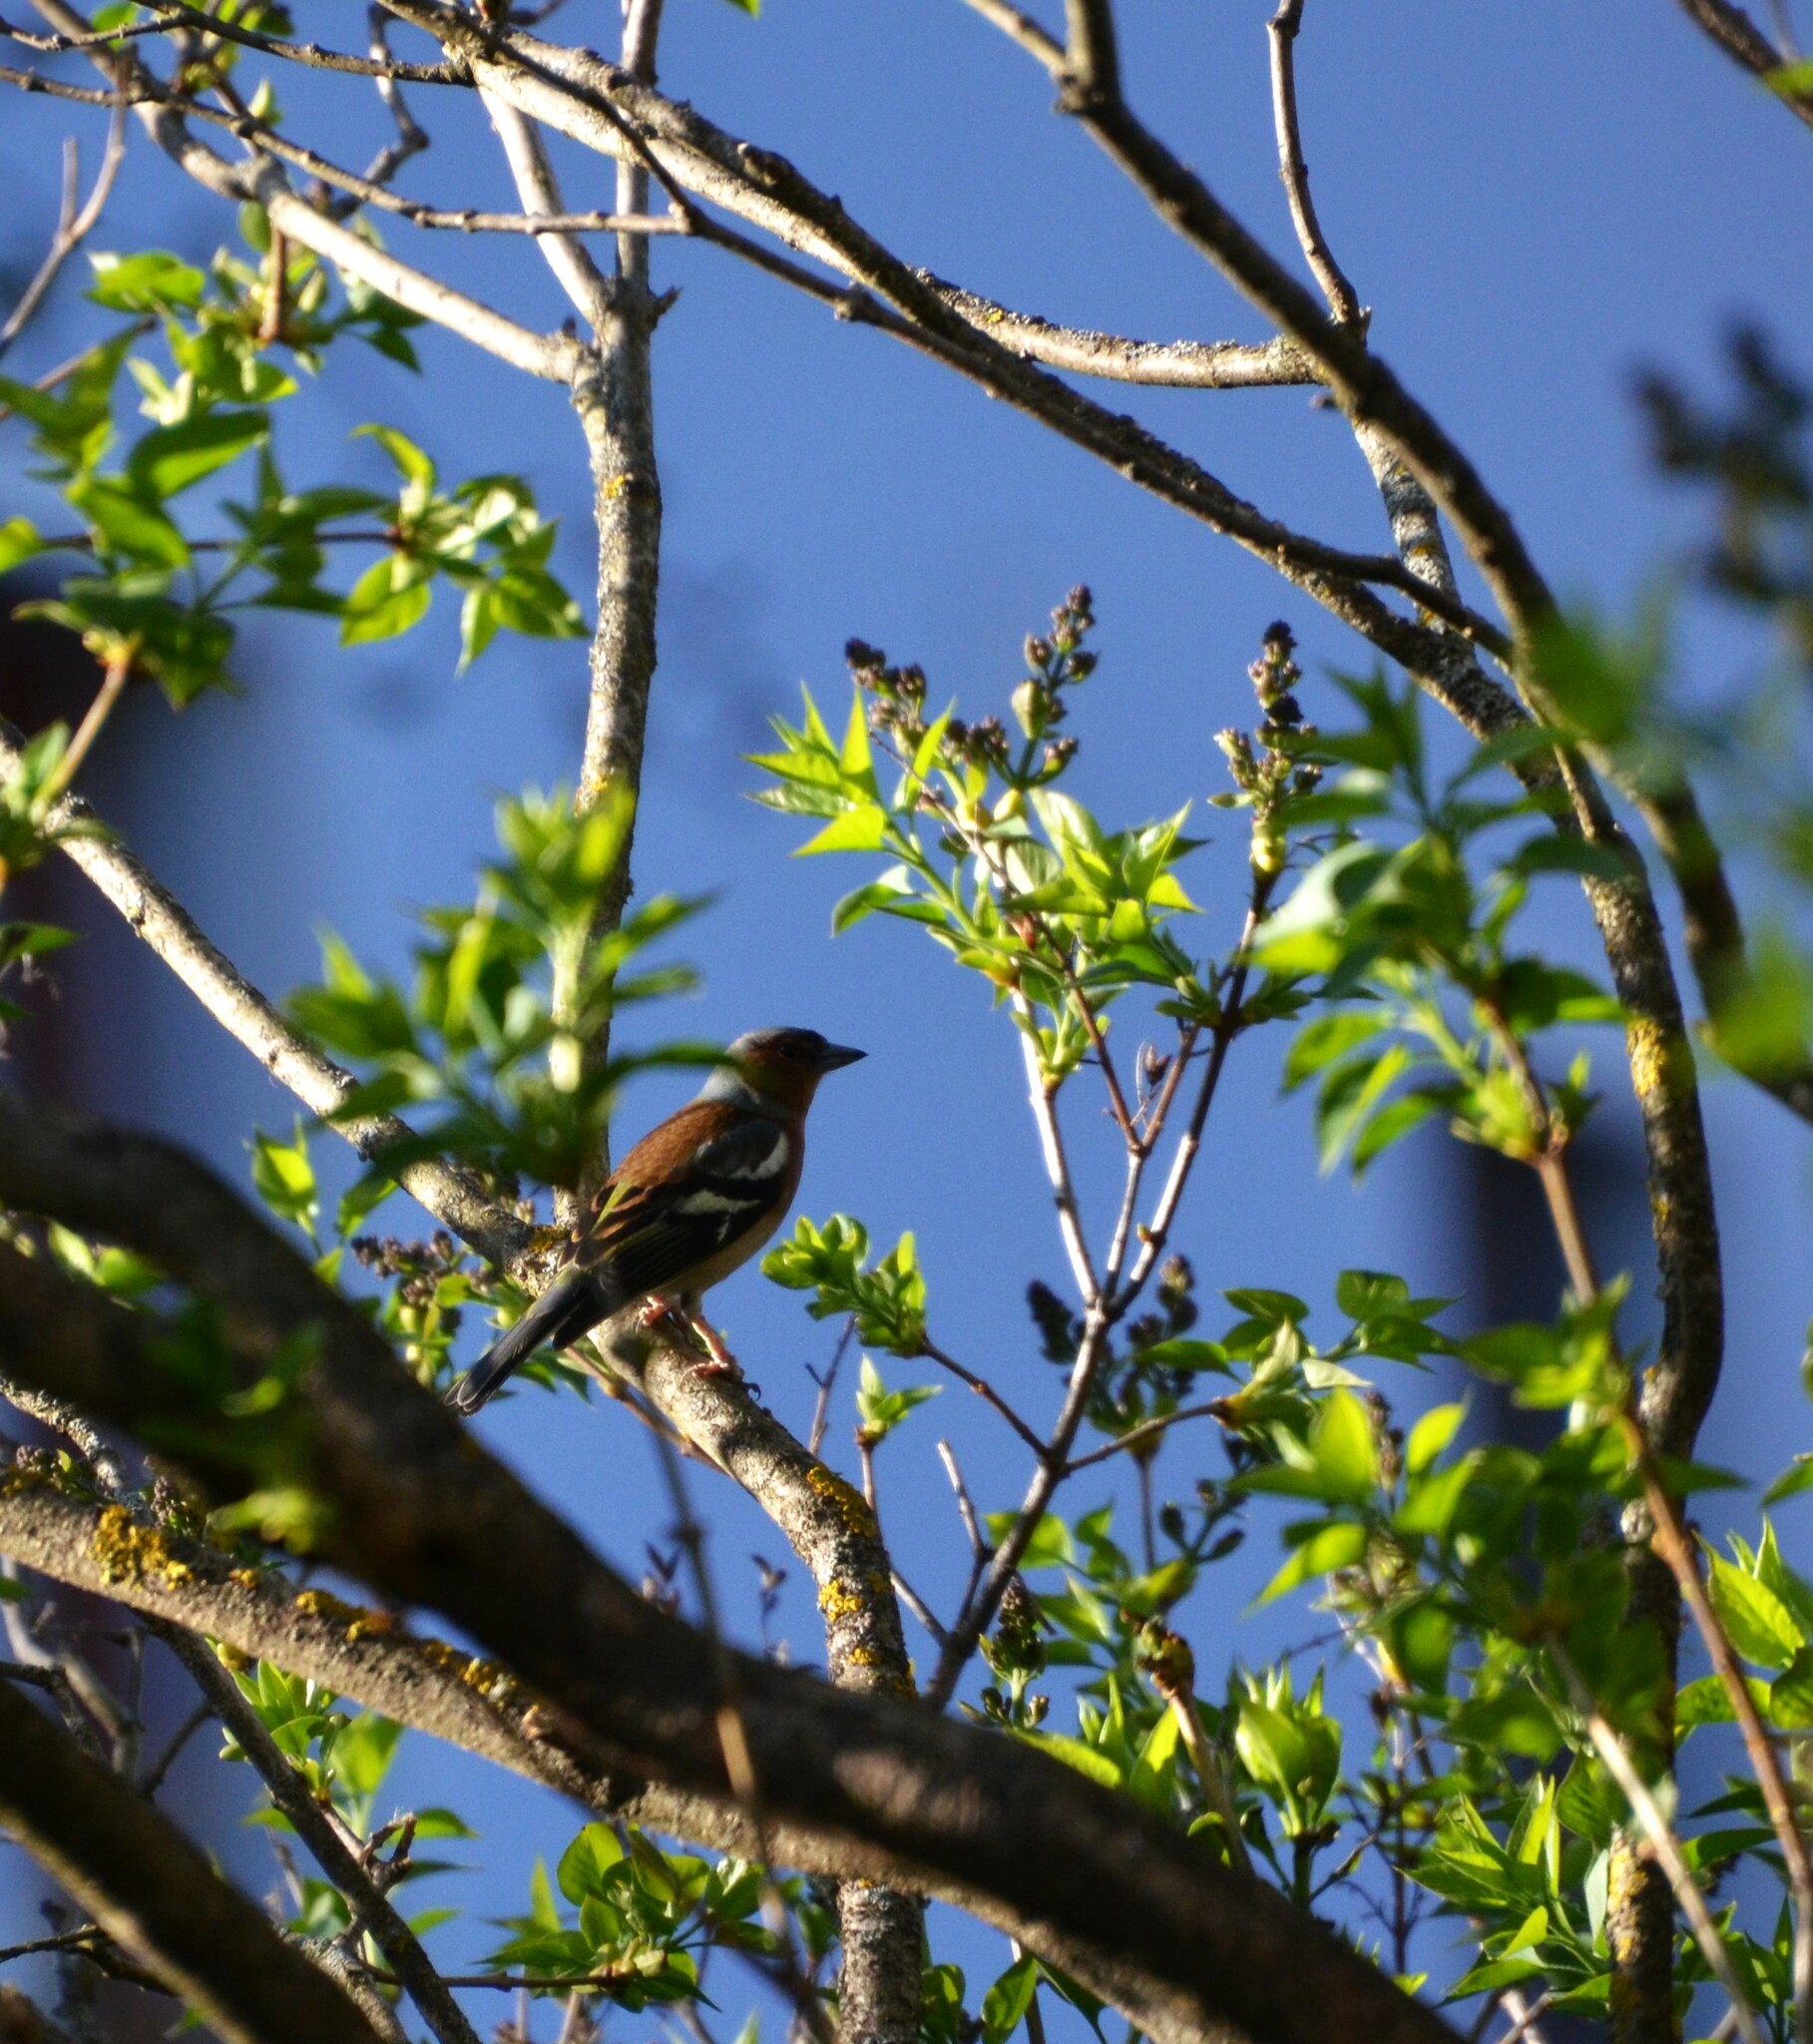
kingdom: Animalia
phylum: Chordata
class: Aves
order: Passeriformes
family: Fringillidae
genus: Fringilla
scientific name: Fringilla coelebs
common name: Common chaffinch
